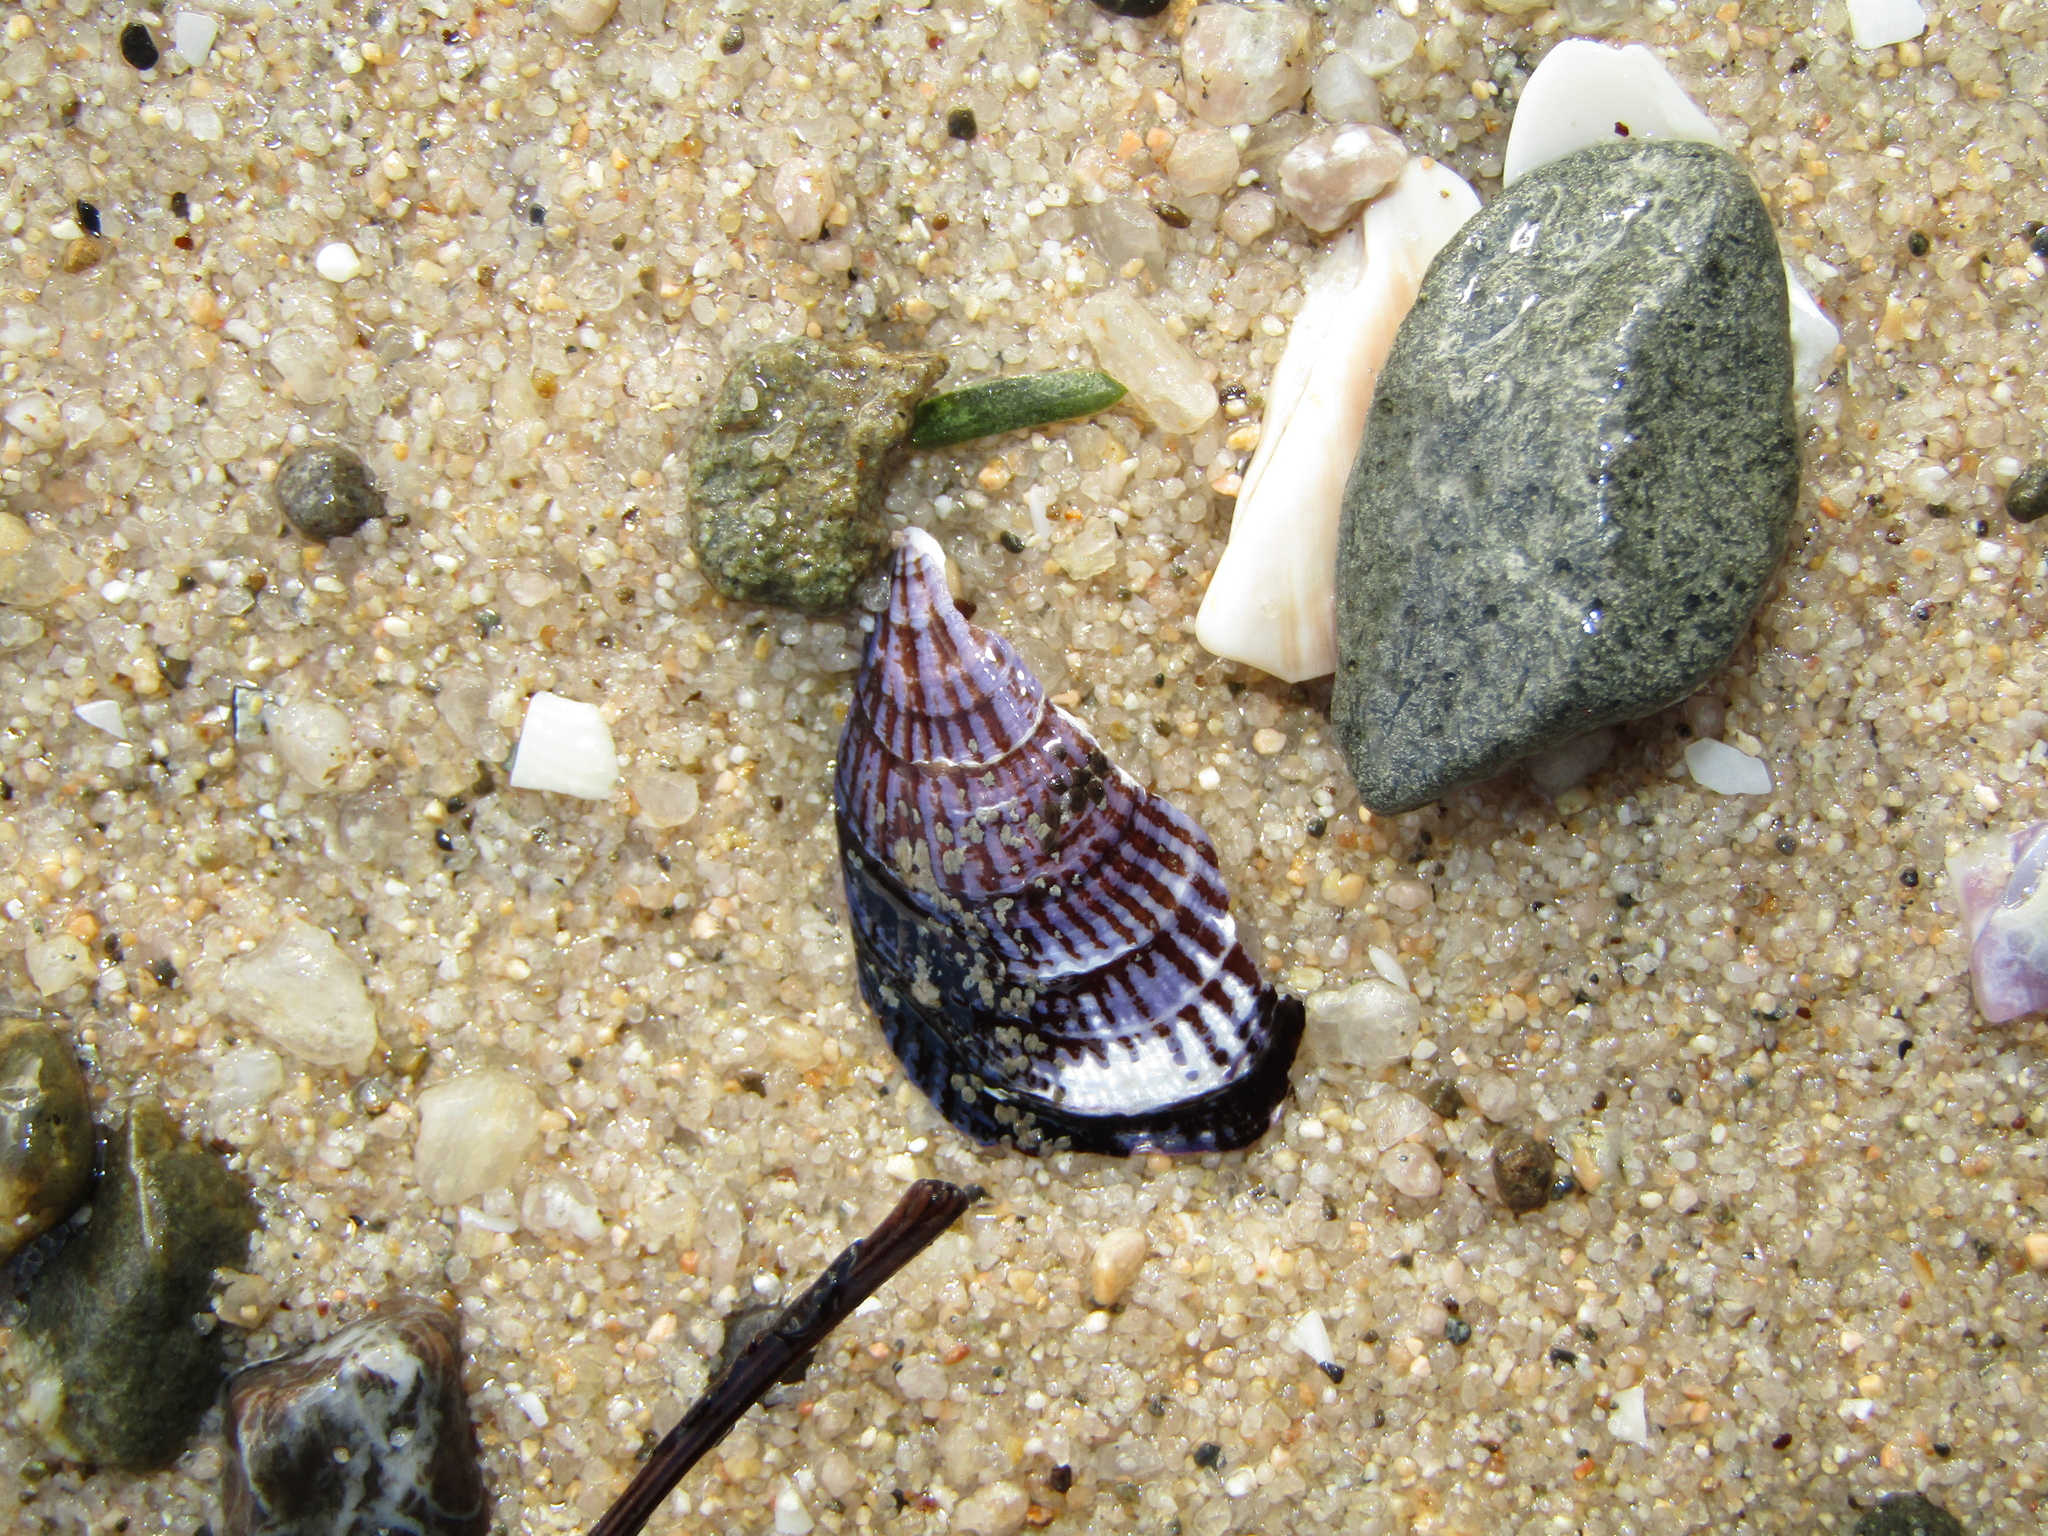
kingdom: Animalia
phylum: Mollusca
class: Bivalvia
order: Mytilida
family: Mytilidae
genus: Aulacomya
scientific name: Aulacomya maoriana
